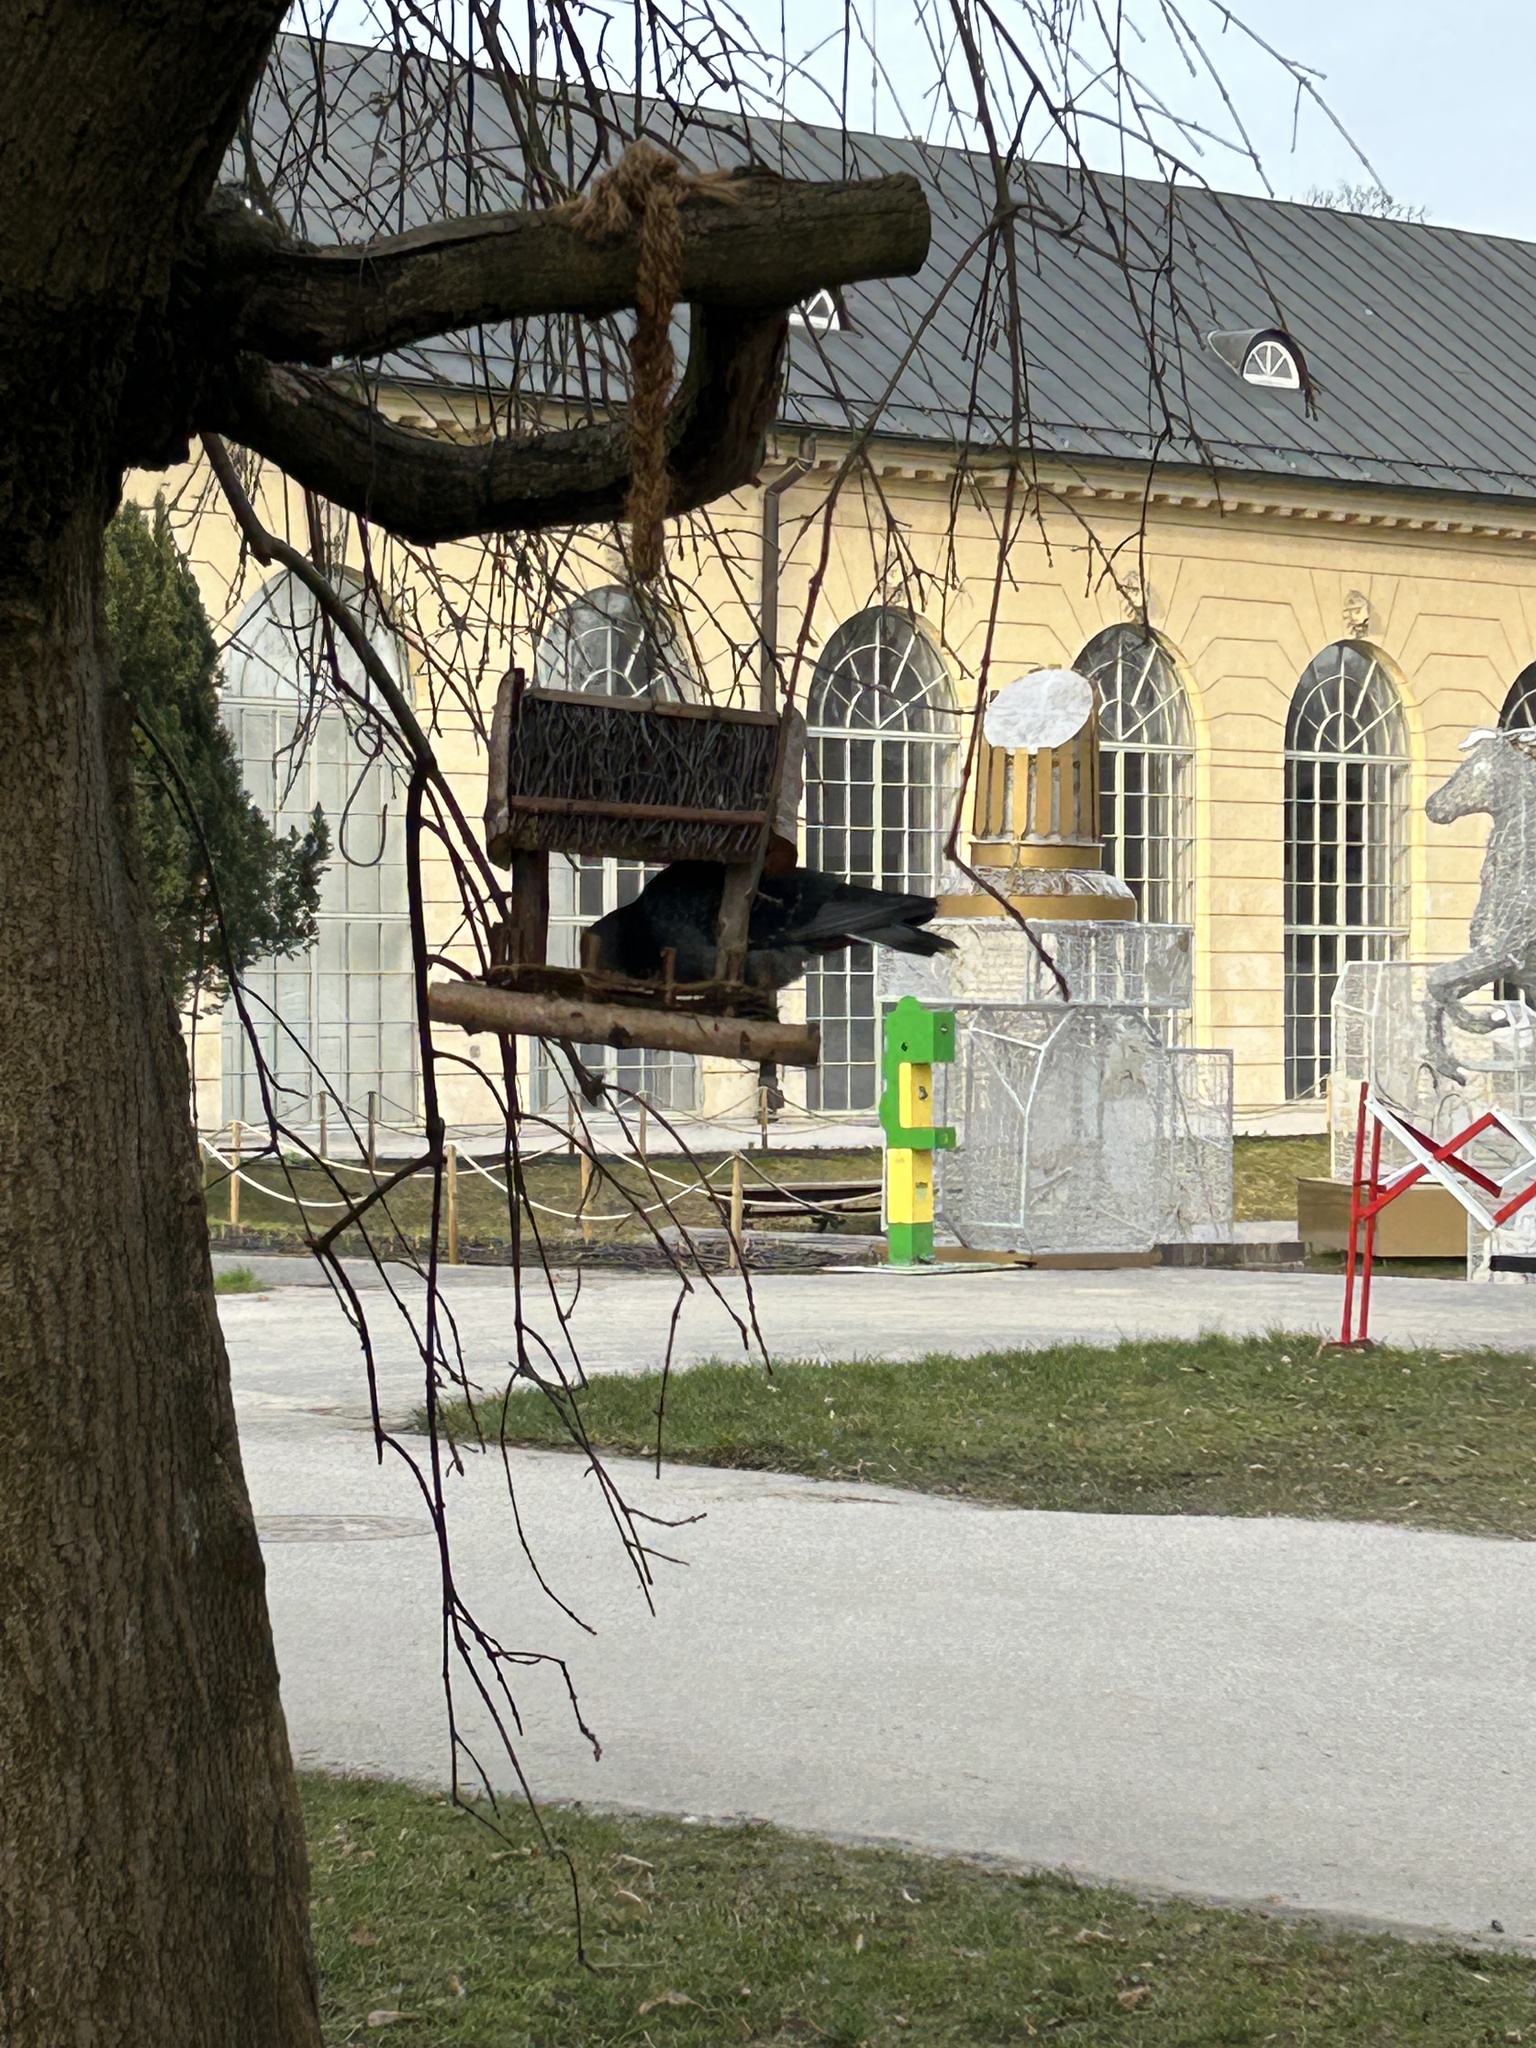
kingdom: Animalia
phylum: Chordata
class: Aves
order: Columbiformes
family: Columbidae
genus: Columba
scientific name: Columba livia
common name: Rock pigeon
